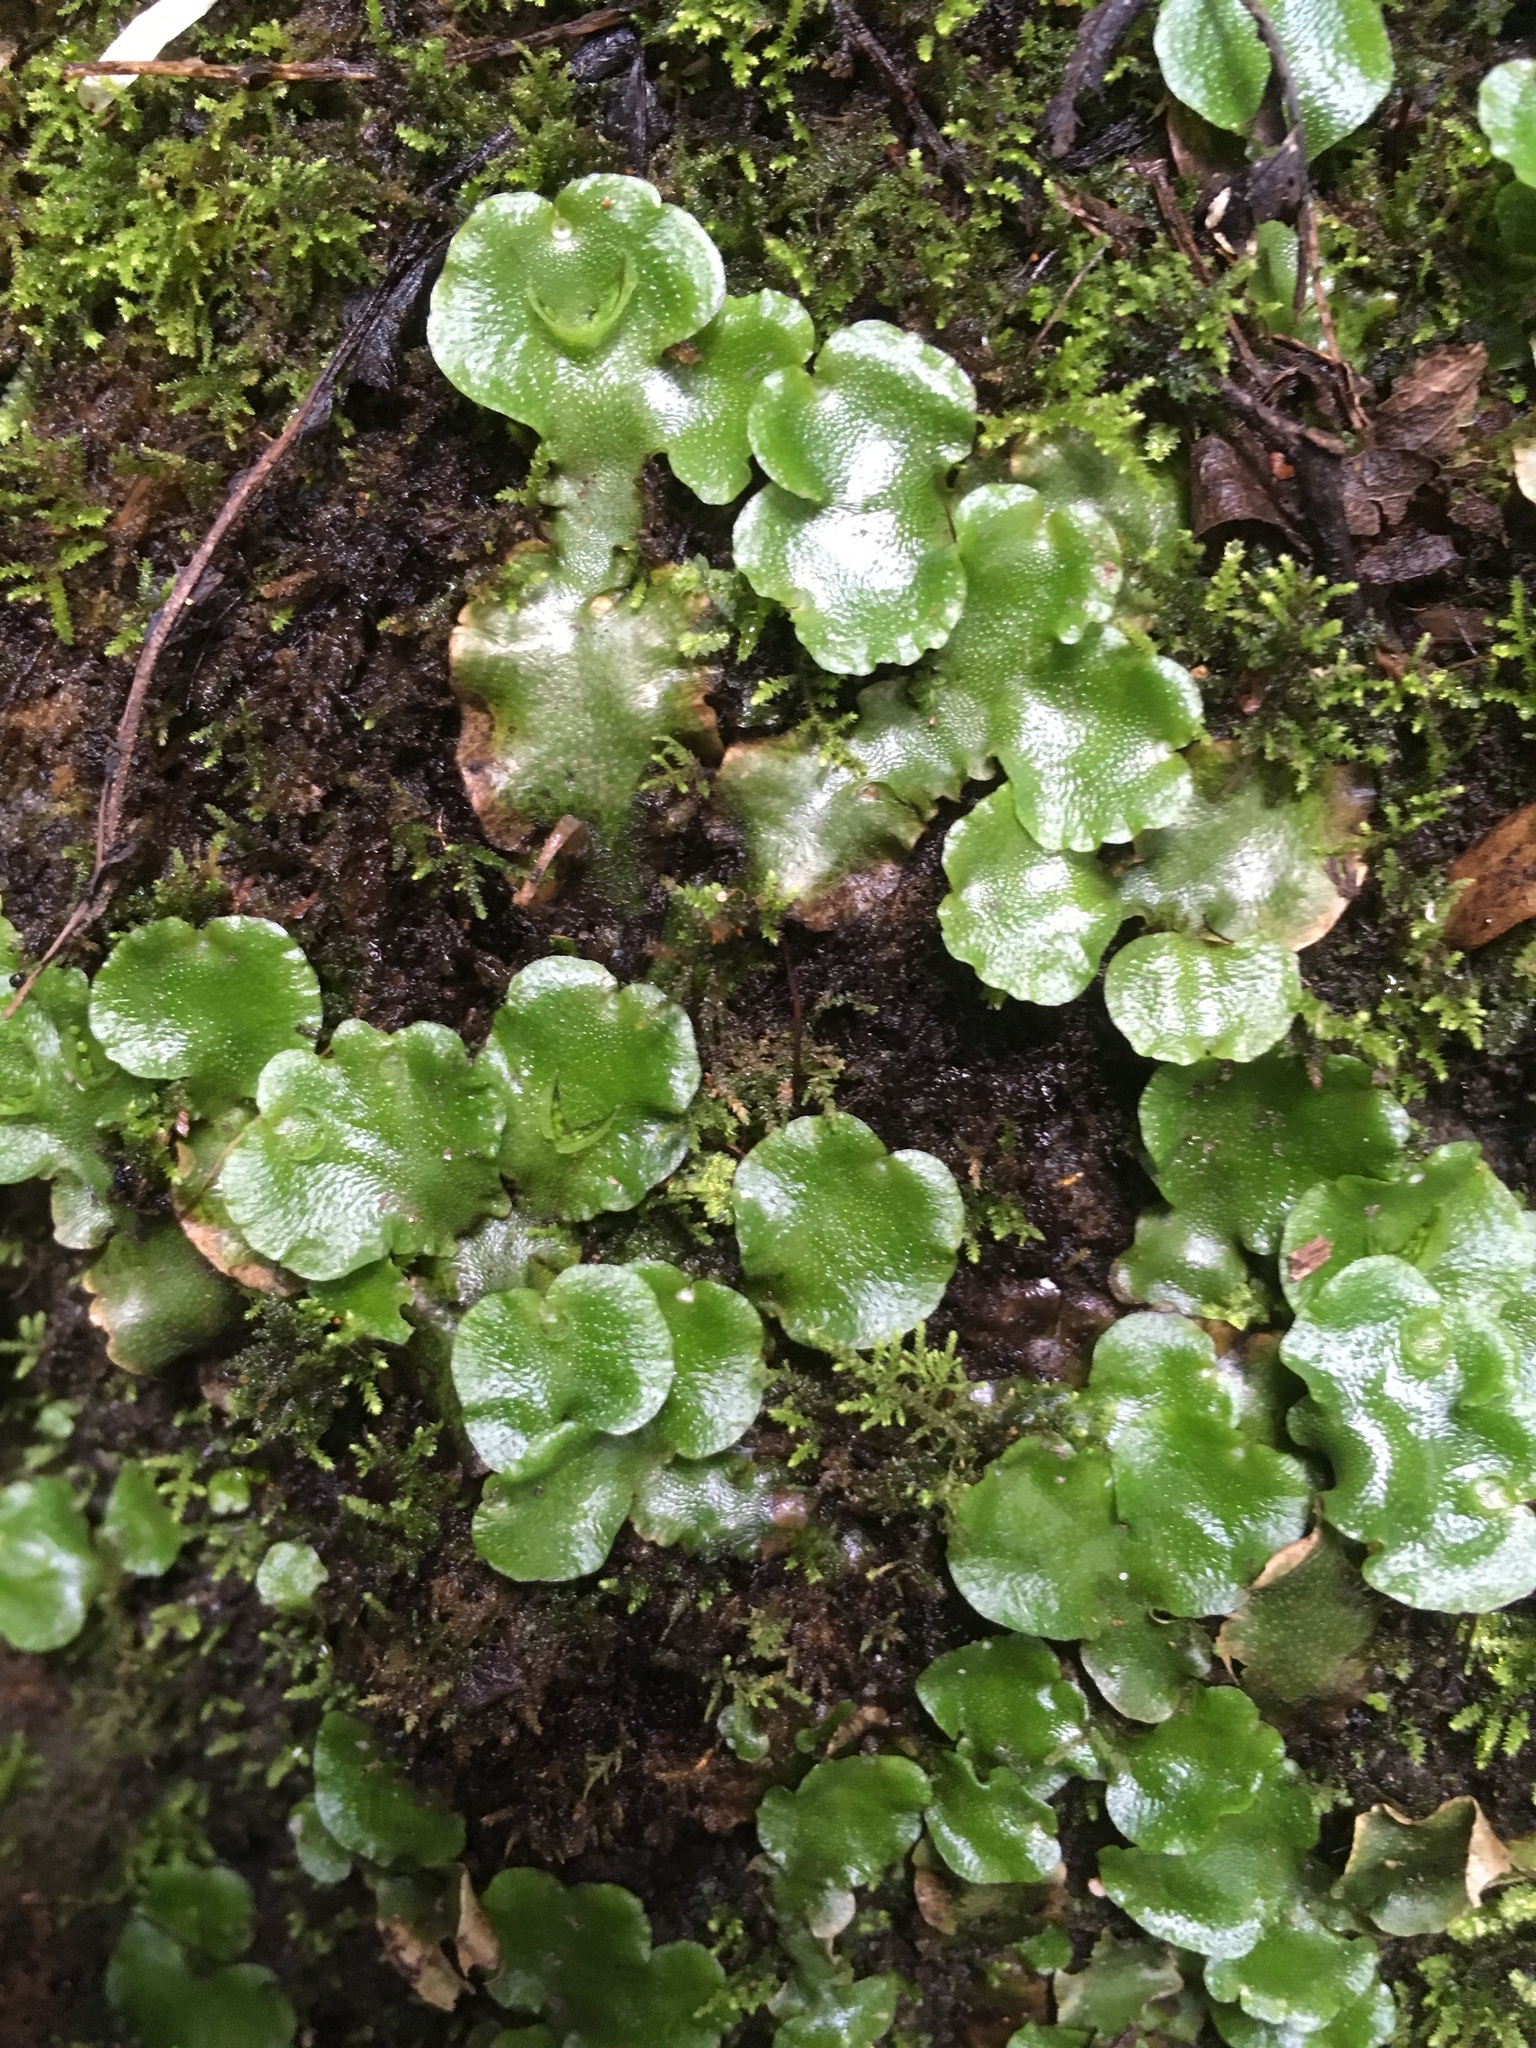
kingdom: Plantae
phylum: Marchantiophyta
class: Marchantiopsida
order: Lunulariales
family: Lunulariaceae
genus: Lunularia
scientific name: Lunularia cruciata
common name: Crescent-cup liverwort
